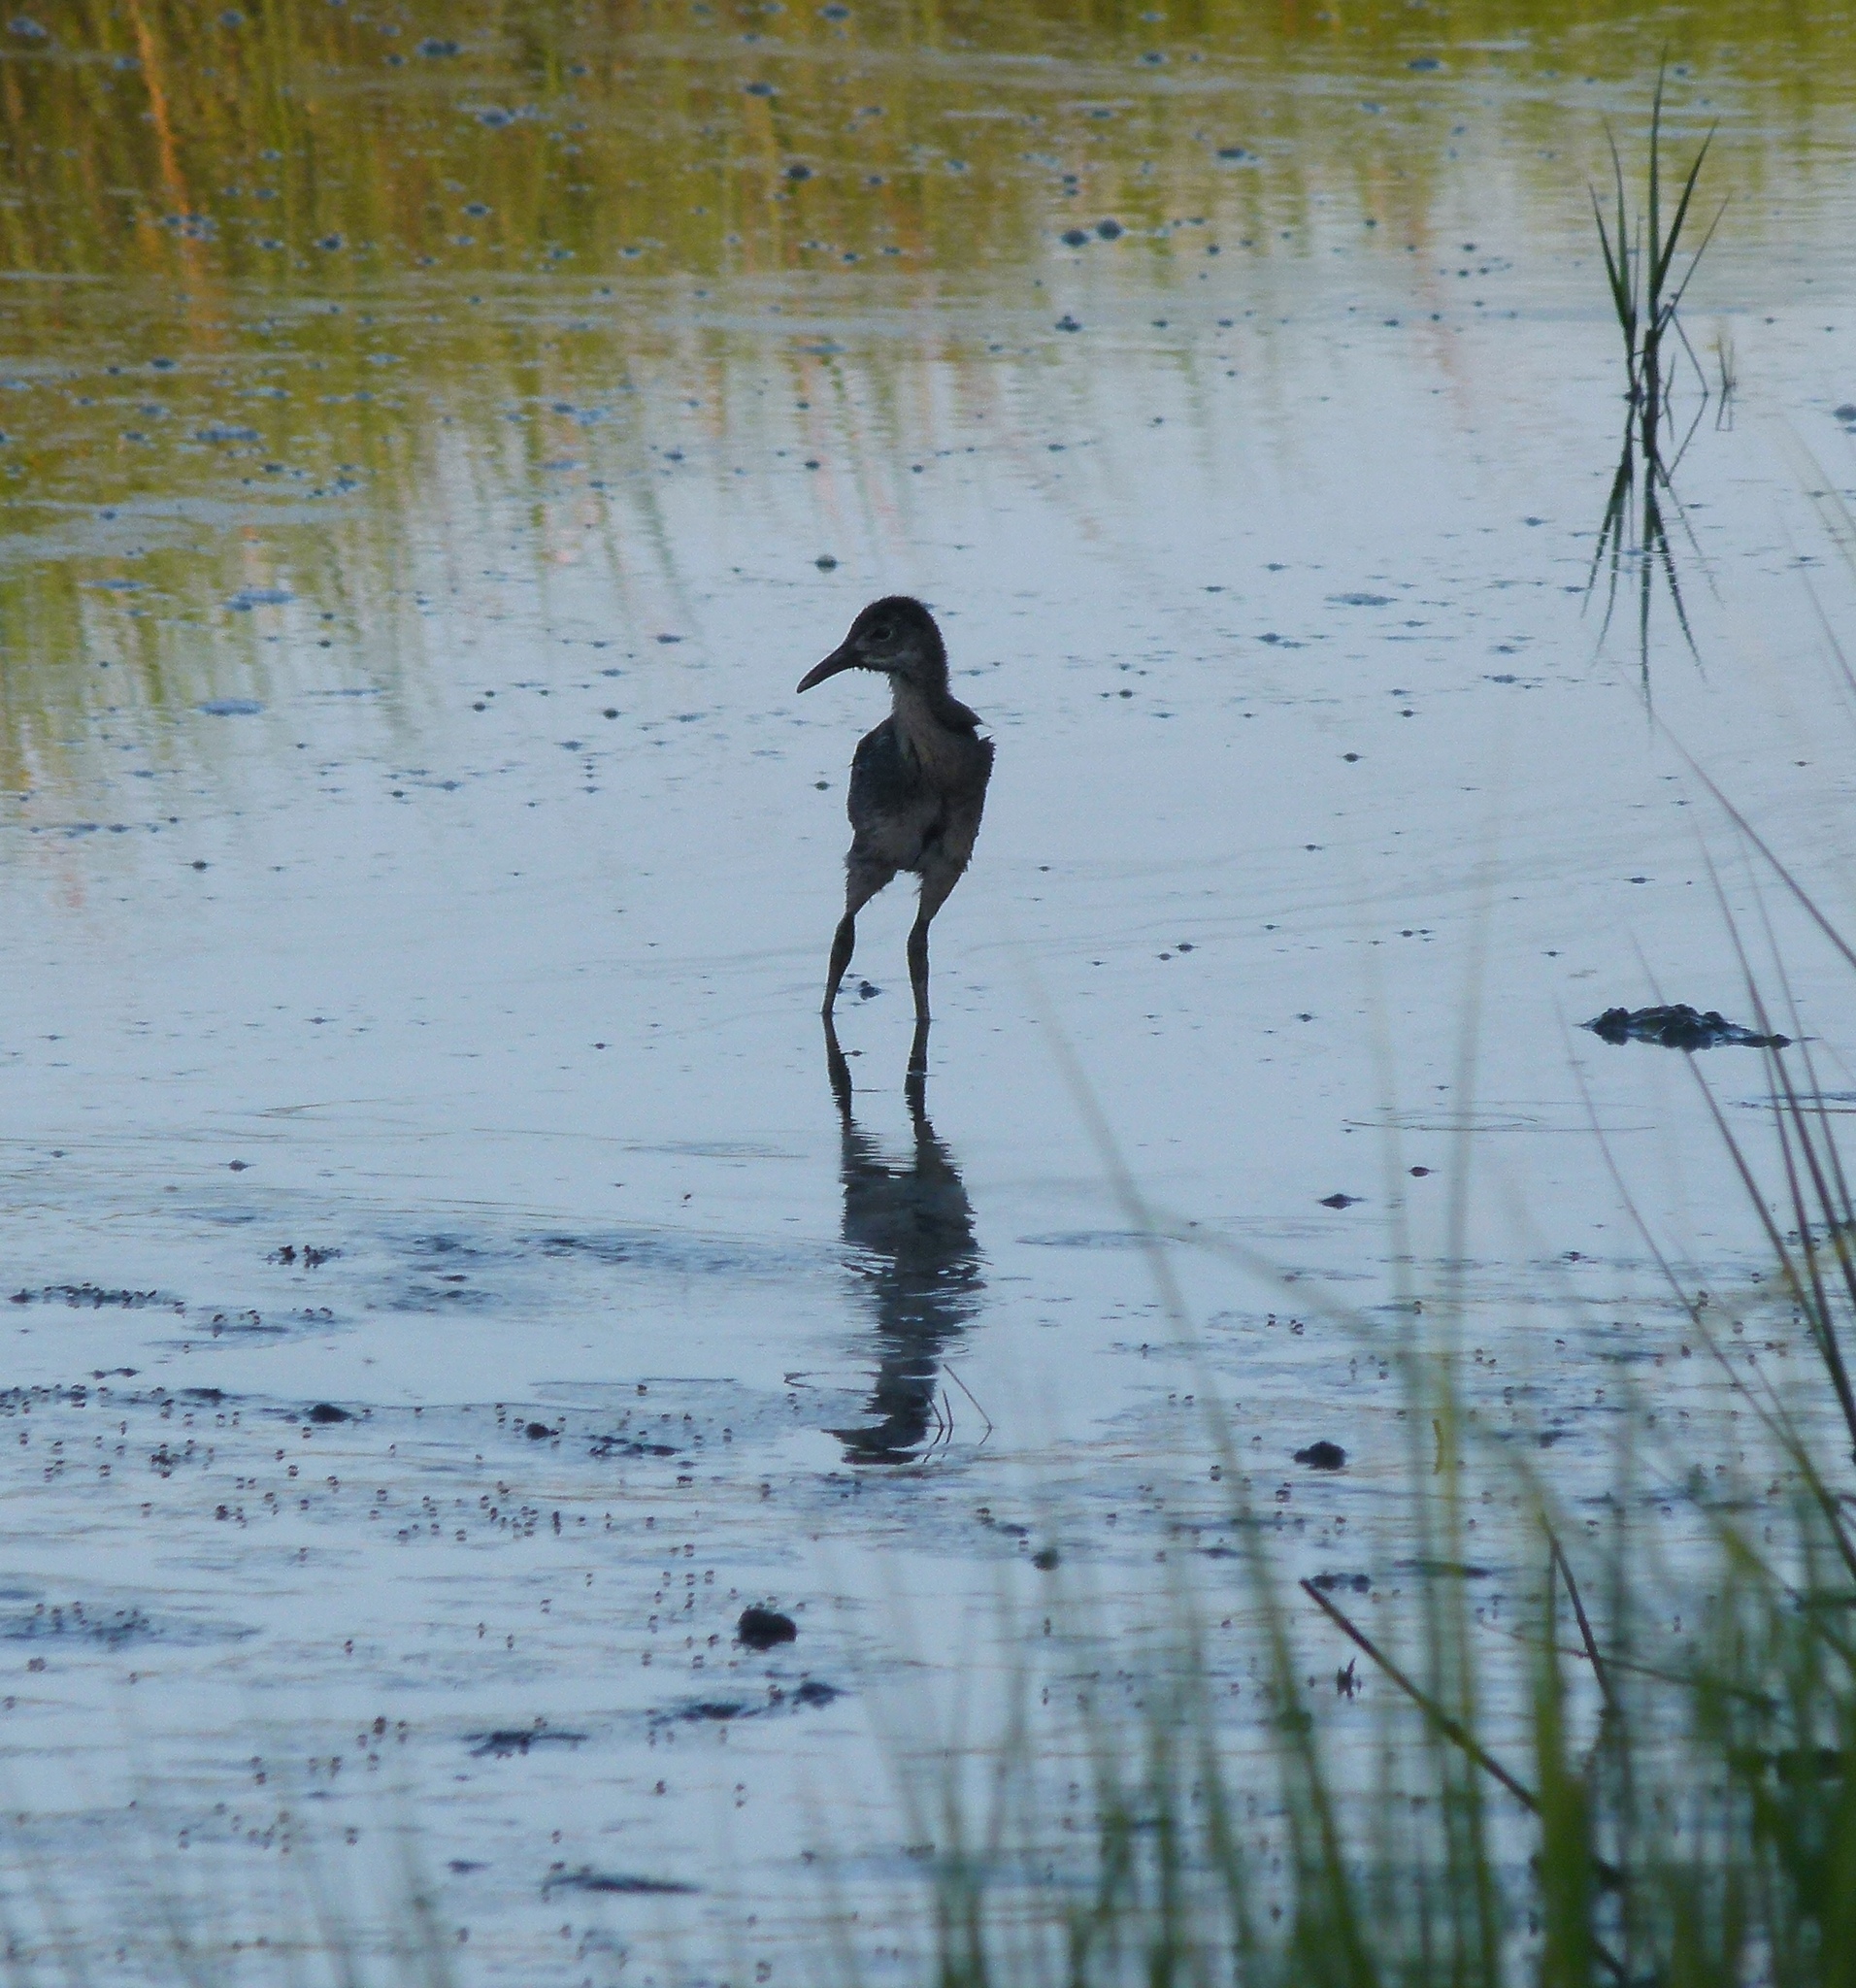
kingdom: Animalia
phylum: Chordata
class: Aves
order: Gruiformes
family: Rallidae
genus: Rallus
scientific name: Rallus crepitans
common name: Clapper rail
